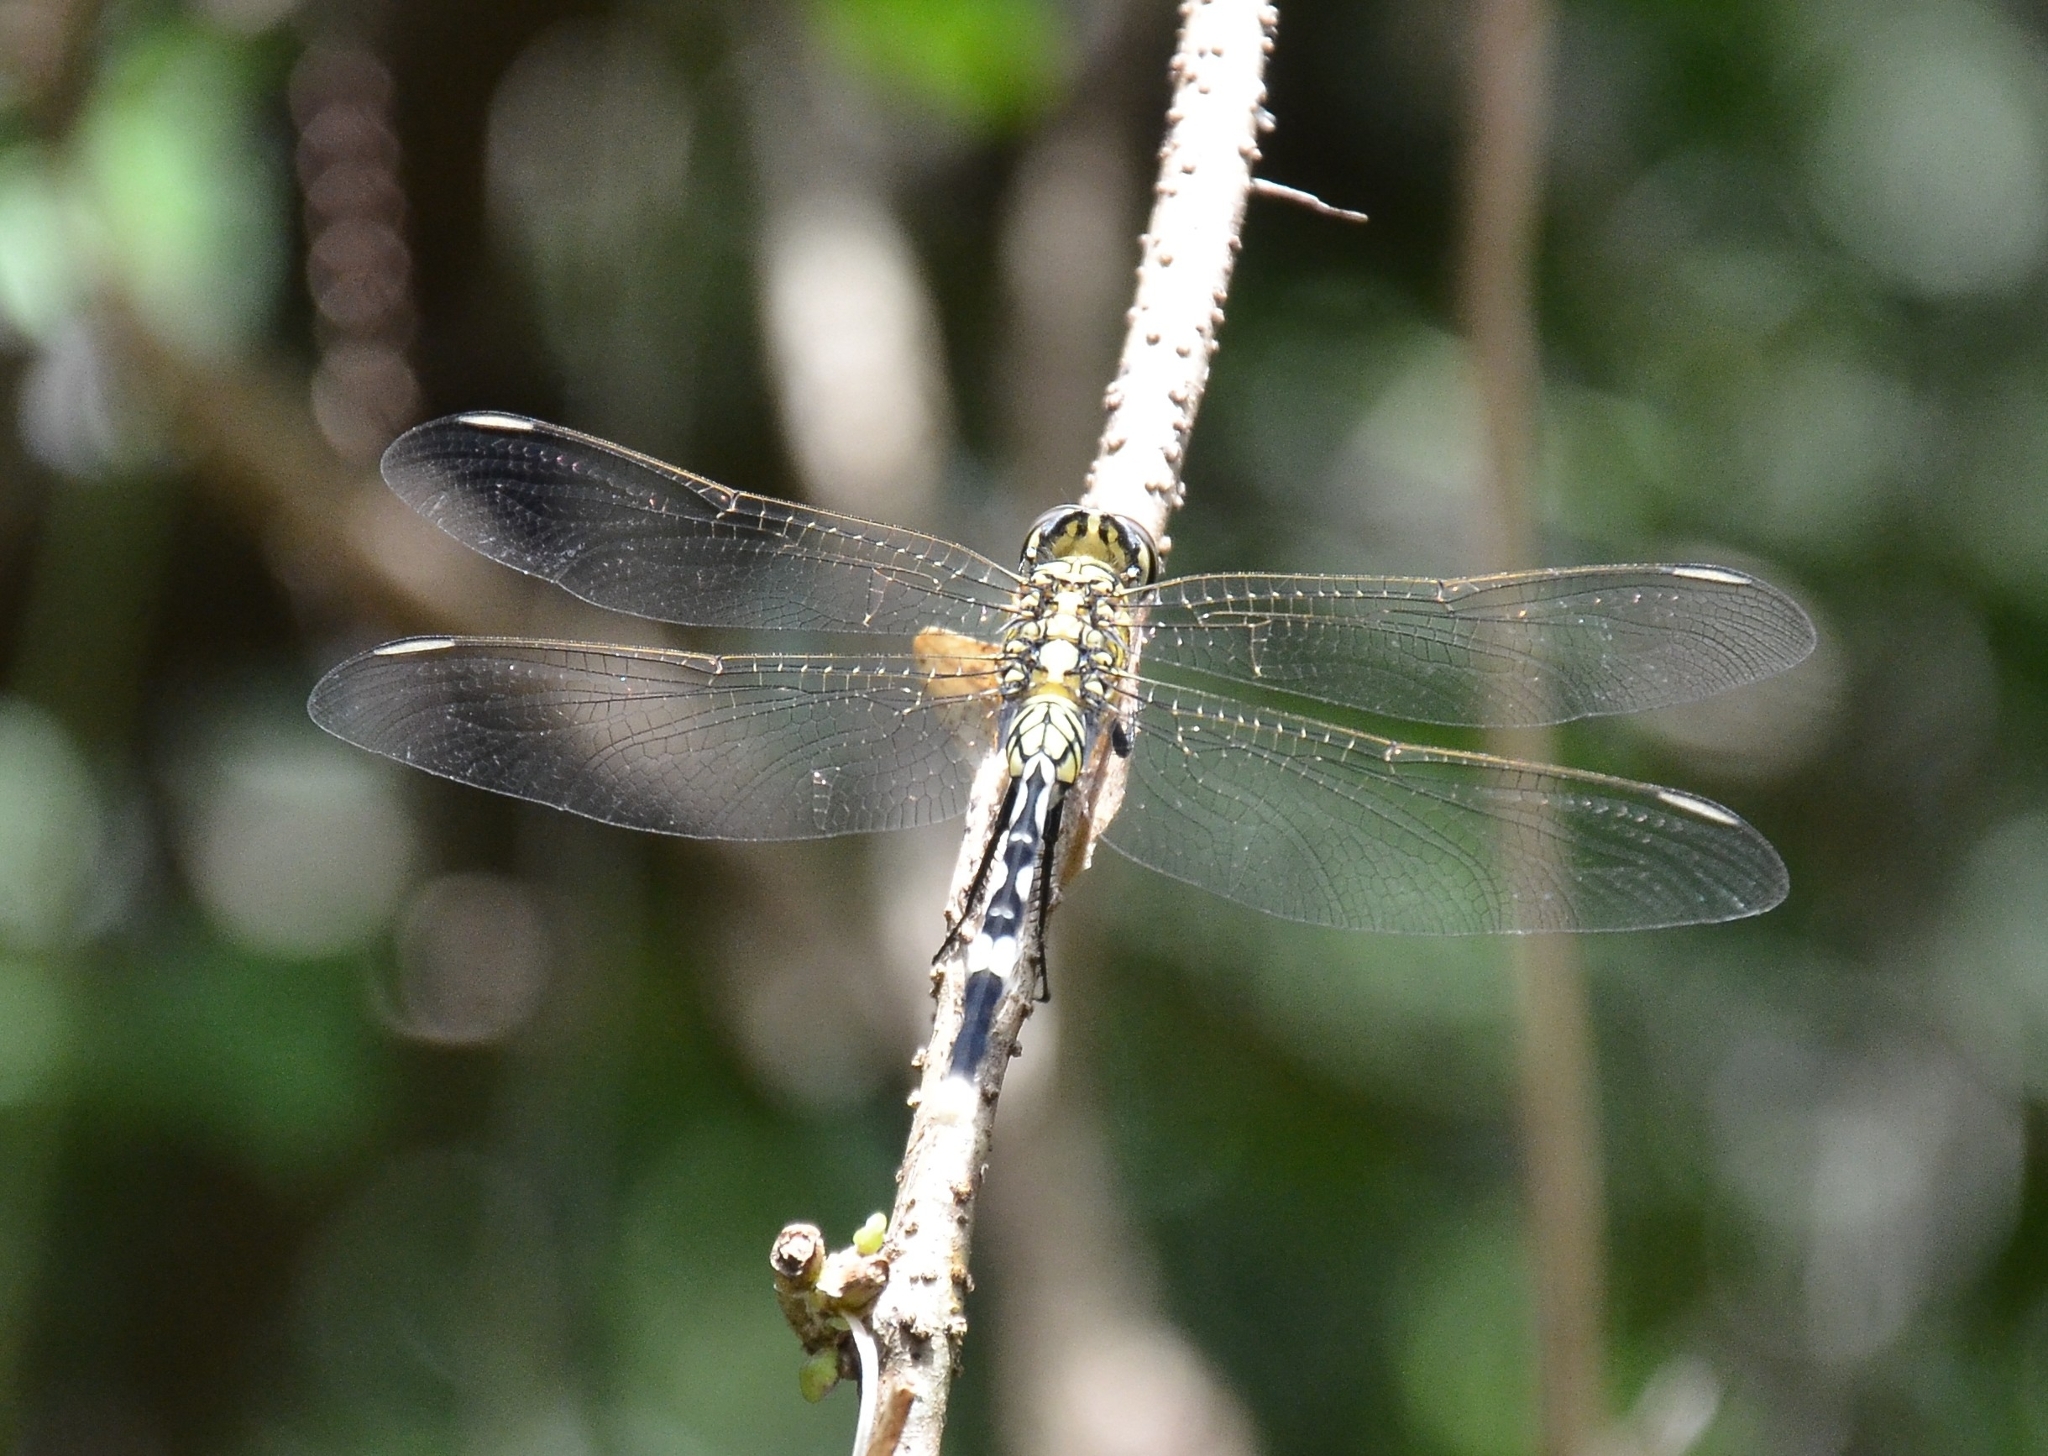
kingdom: Animalia
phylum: Arthropoda
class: Insecta
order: Odonata
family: Libellulidae
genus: Orthetrum
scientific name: Orthetrum sabina
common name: Slender skimmer
